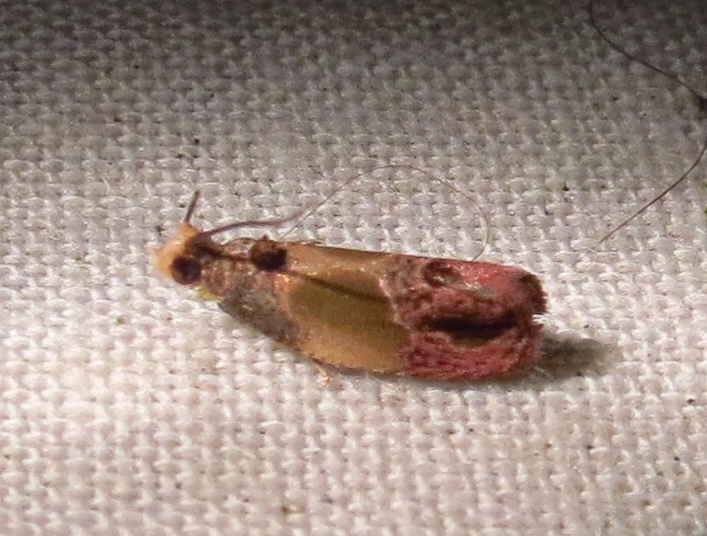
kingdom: Animalia
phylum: Arthropoda
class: Insecta
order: Lepidoptera
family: Tortricidae
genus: Eumarozia
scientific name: Eumarozia malachitana
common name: Sculptured moth
